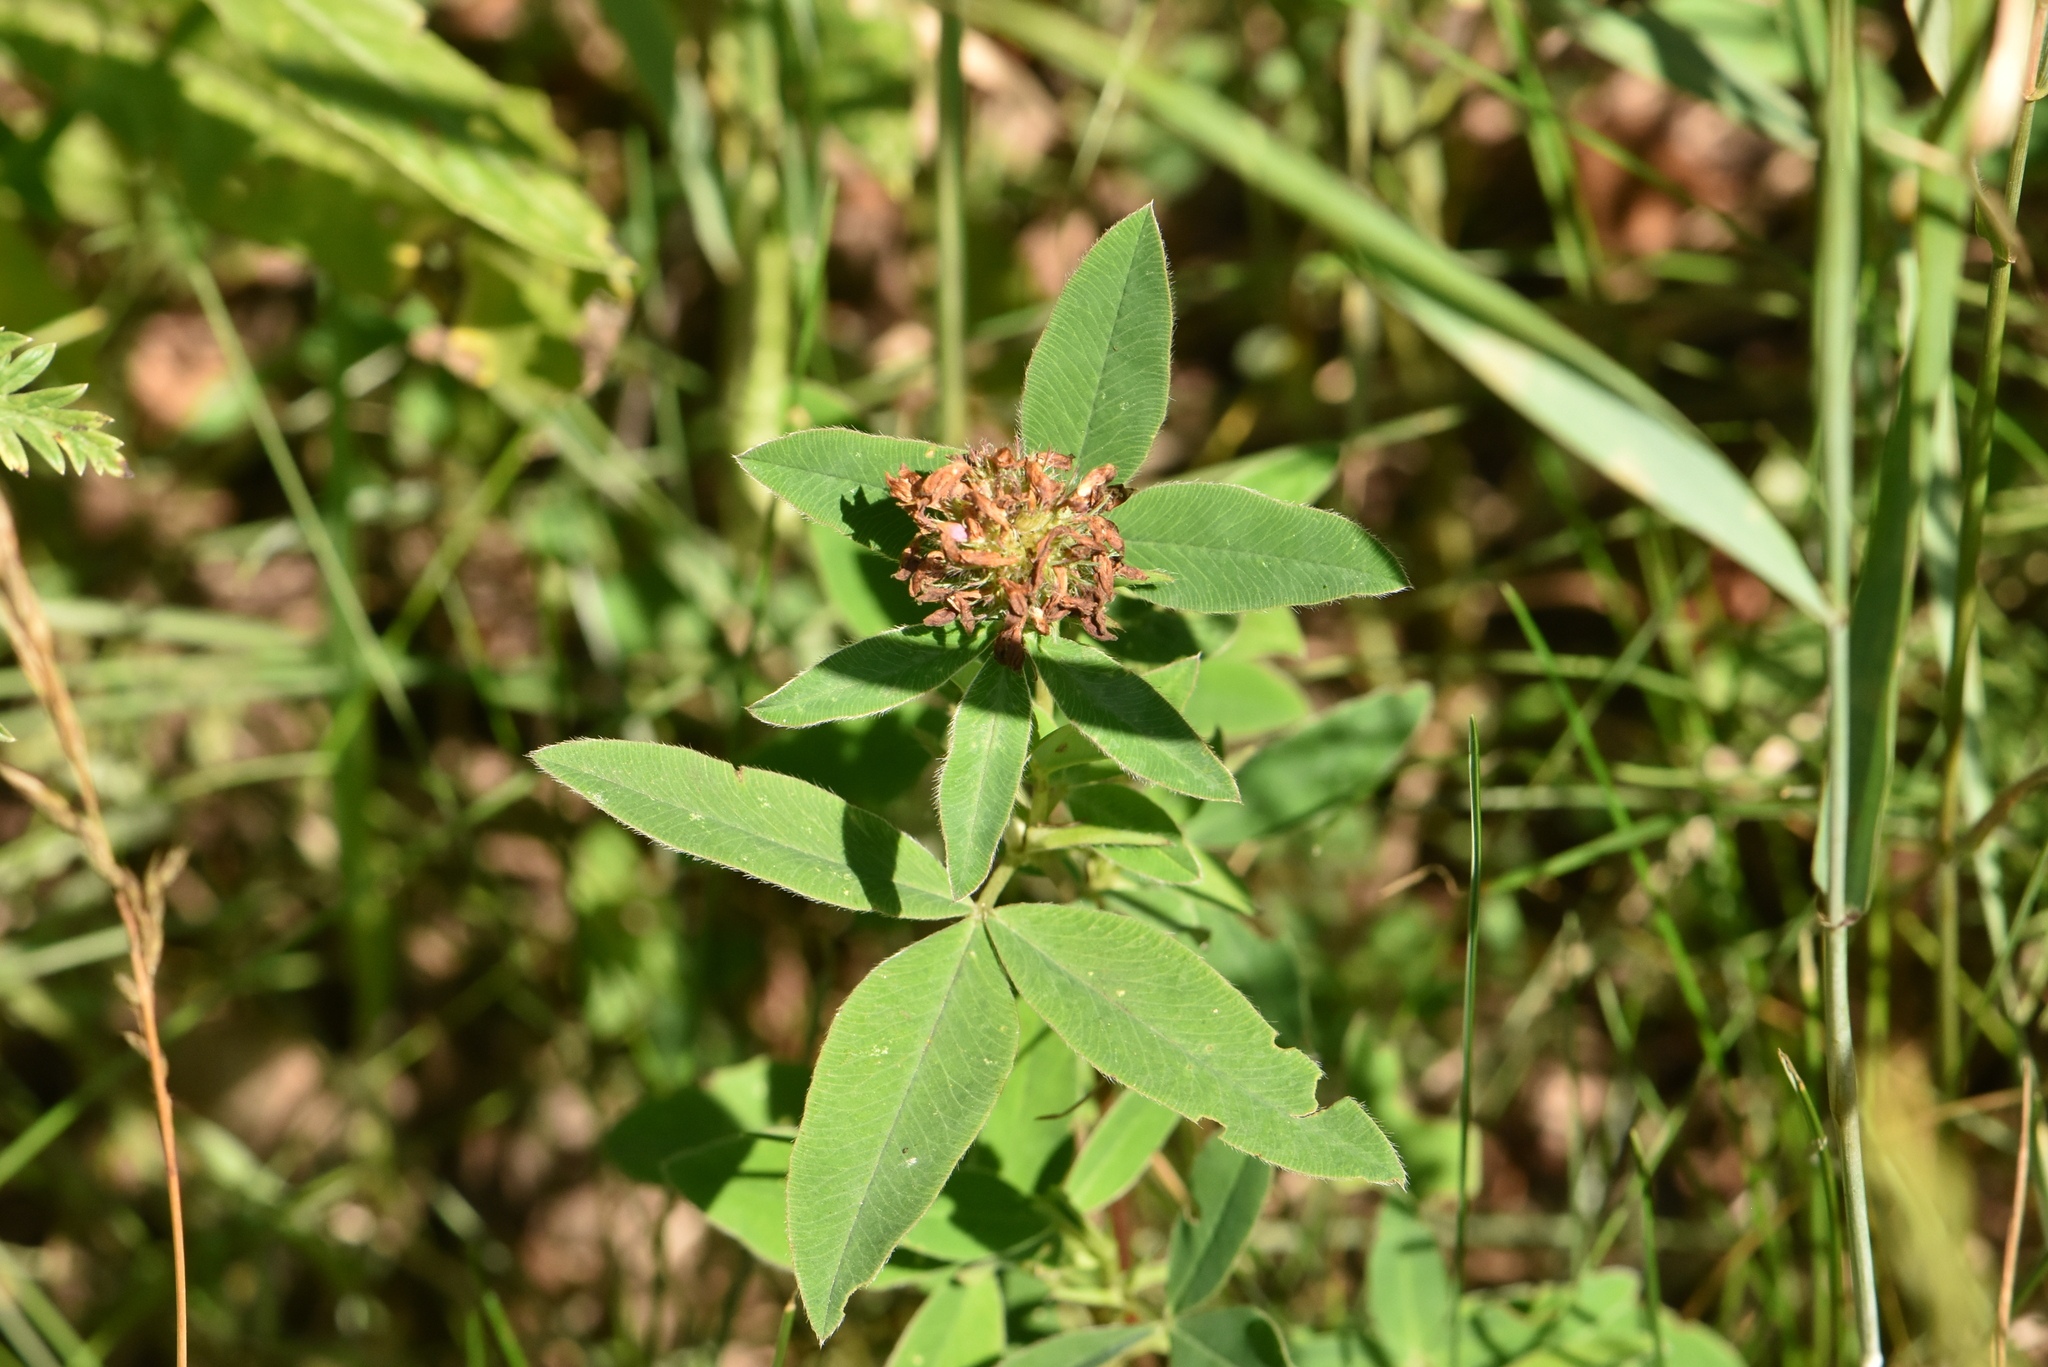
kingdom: Plantae
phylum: Tracheophyta
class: Magnoliopsida
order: Fabales
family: Fabaceae
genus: Trifolium
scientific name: Trifolium medium
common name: Zigzag clover
